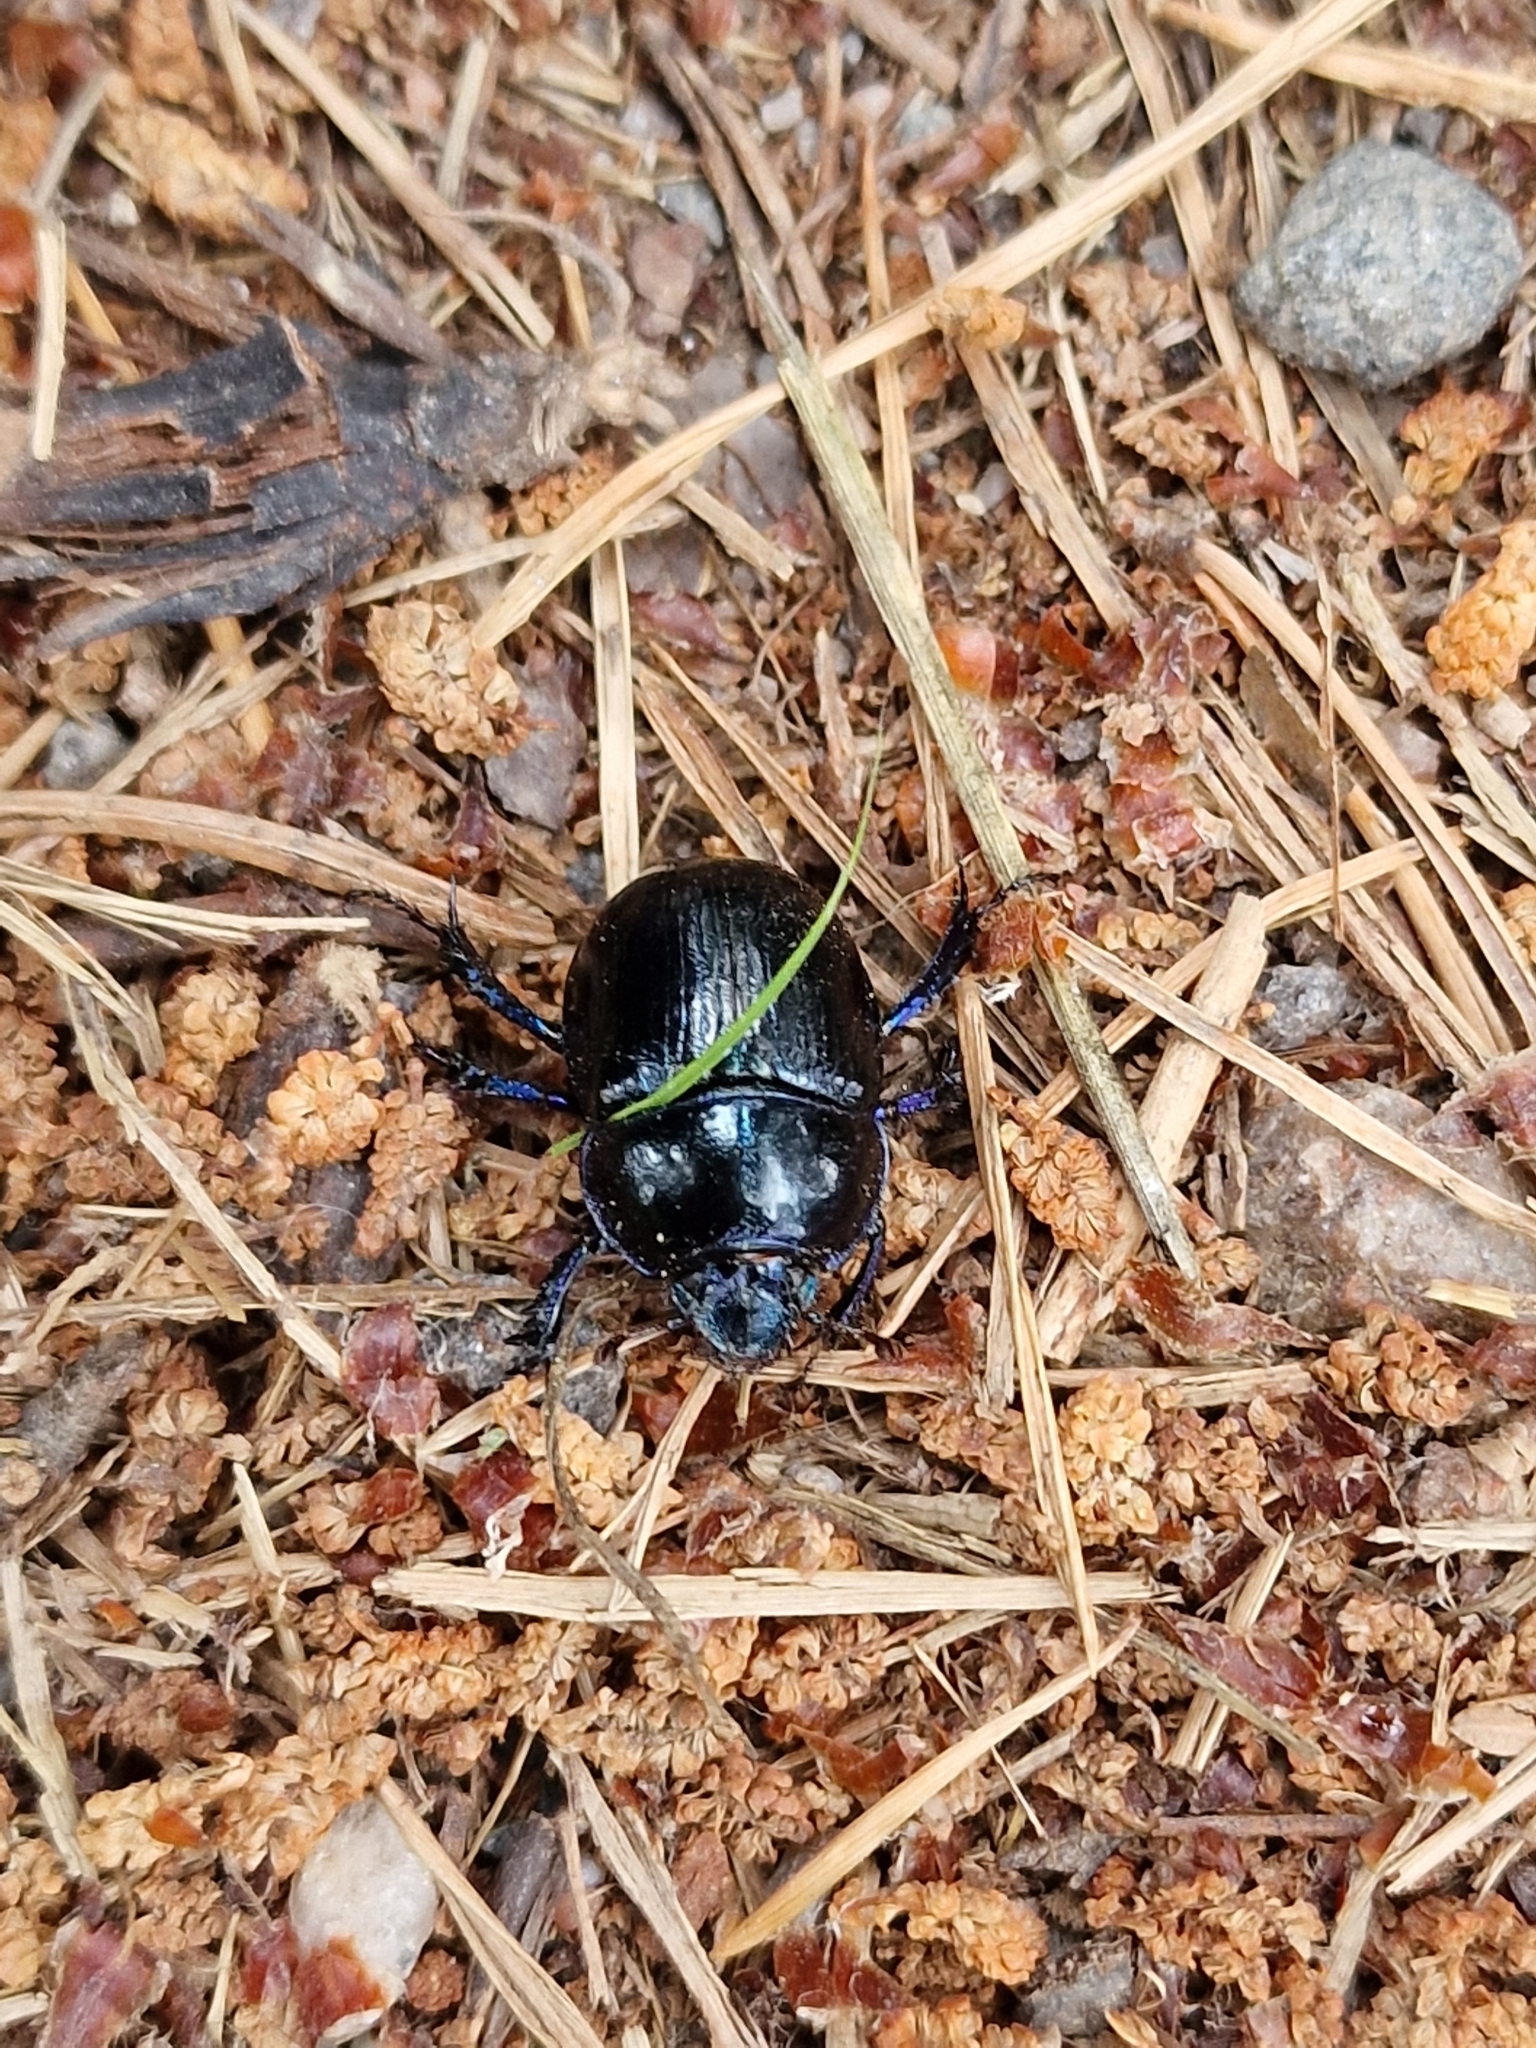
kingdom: Animalia
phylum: Arthropoda
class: Insecta
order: Coleoptera
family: Geotrupidae
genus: Anoplotrupes
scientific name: Anoplotrupes stercorosus
